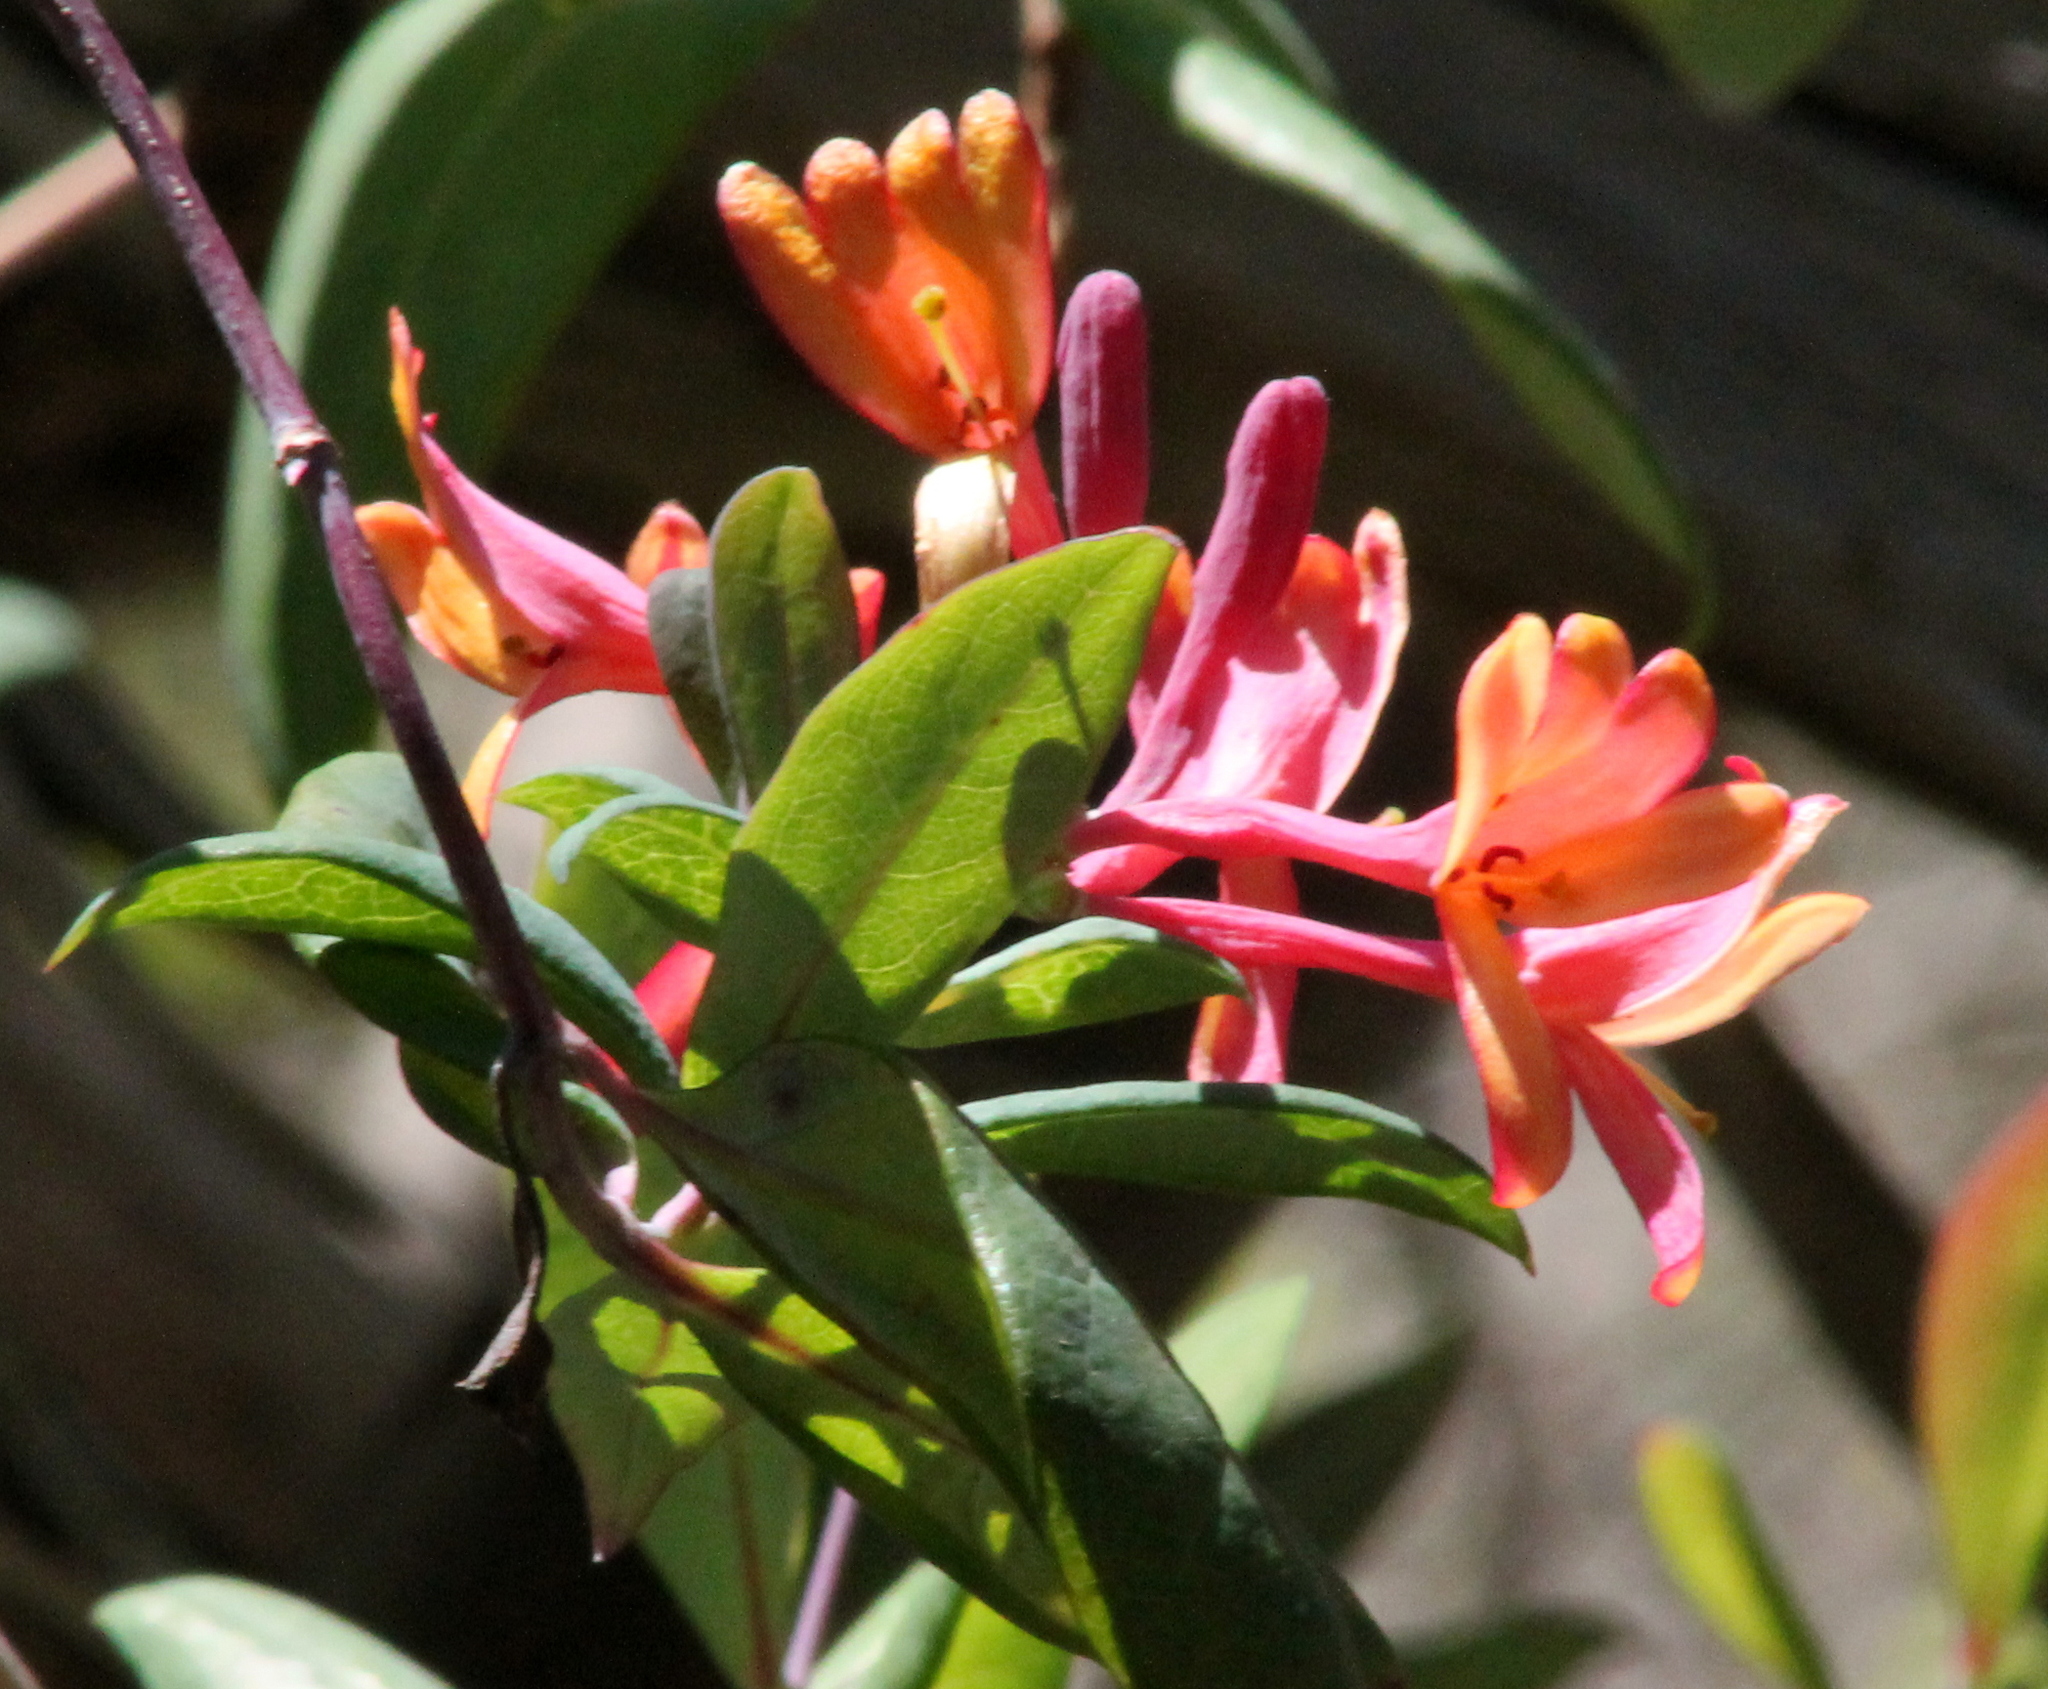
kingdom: Plantae
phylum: Tracheophyta
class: Magnoliopsida
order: Dipsacales
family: Caprifoliaceae
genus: Lonicera
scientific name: Lonicera sempervirens
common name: Coral honeysuckle
